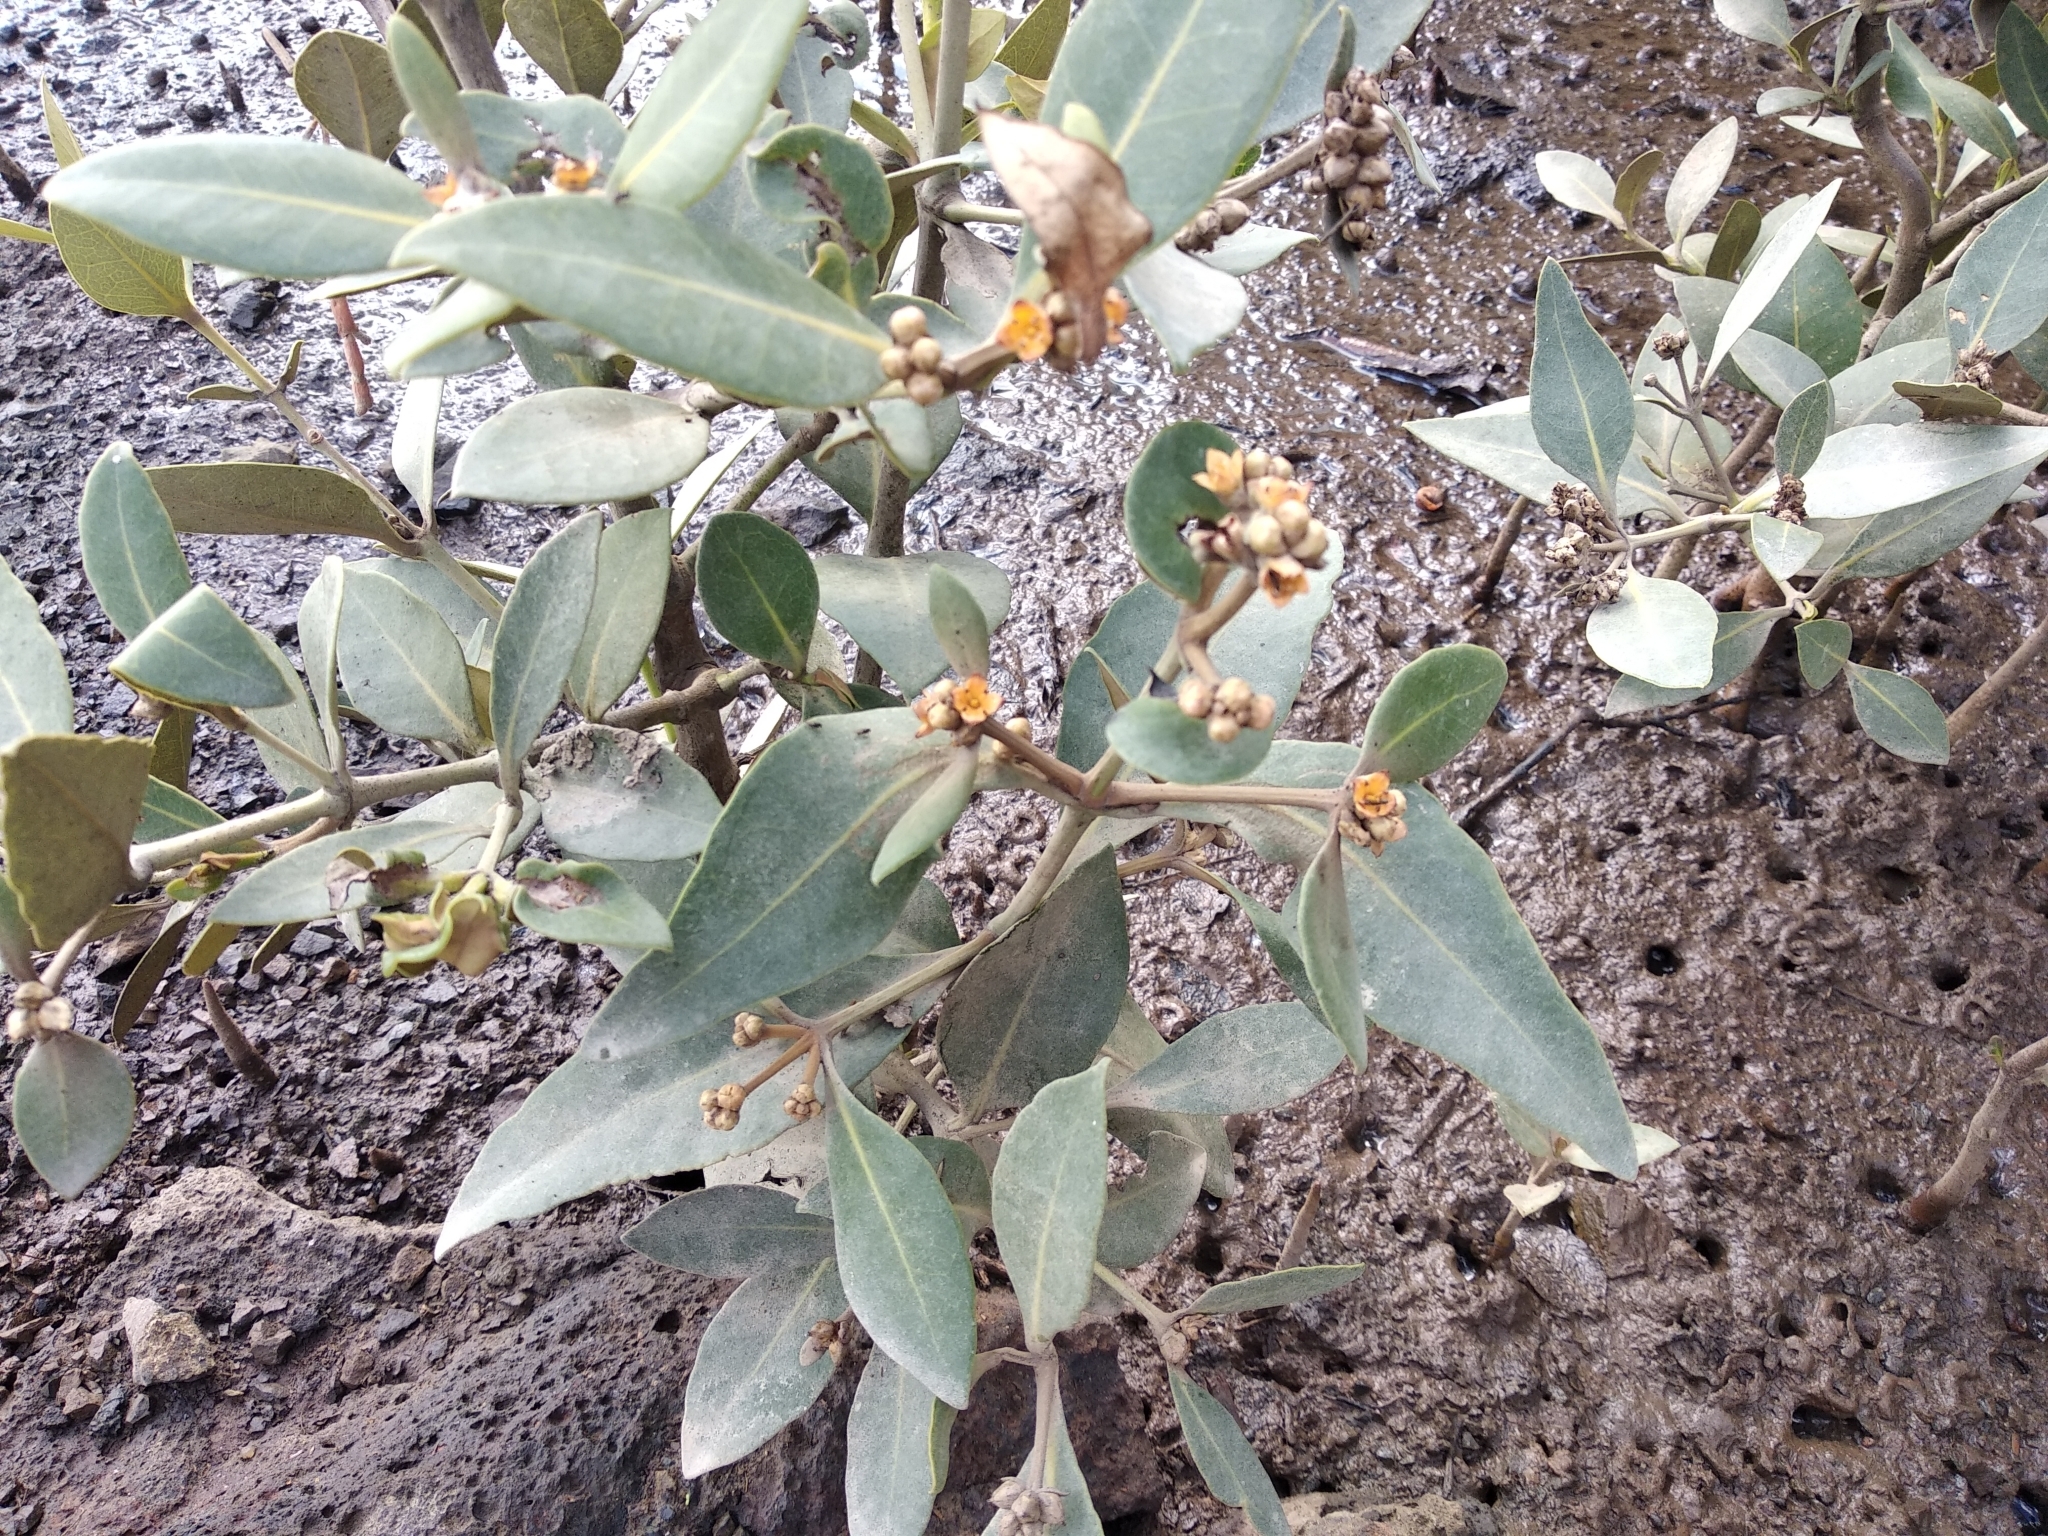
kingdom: Plantae
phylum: Tracheophyta
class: Magnoliopsida
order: Lamiales
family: Acanthaceae
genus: Avicennia
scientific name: Avicennia marina
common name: Gray mangrove
